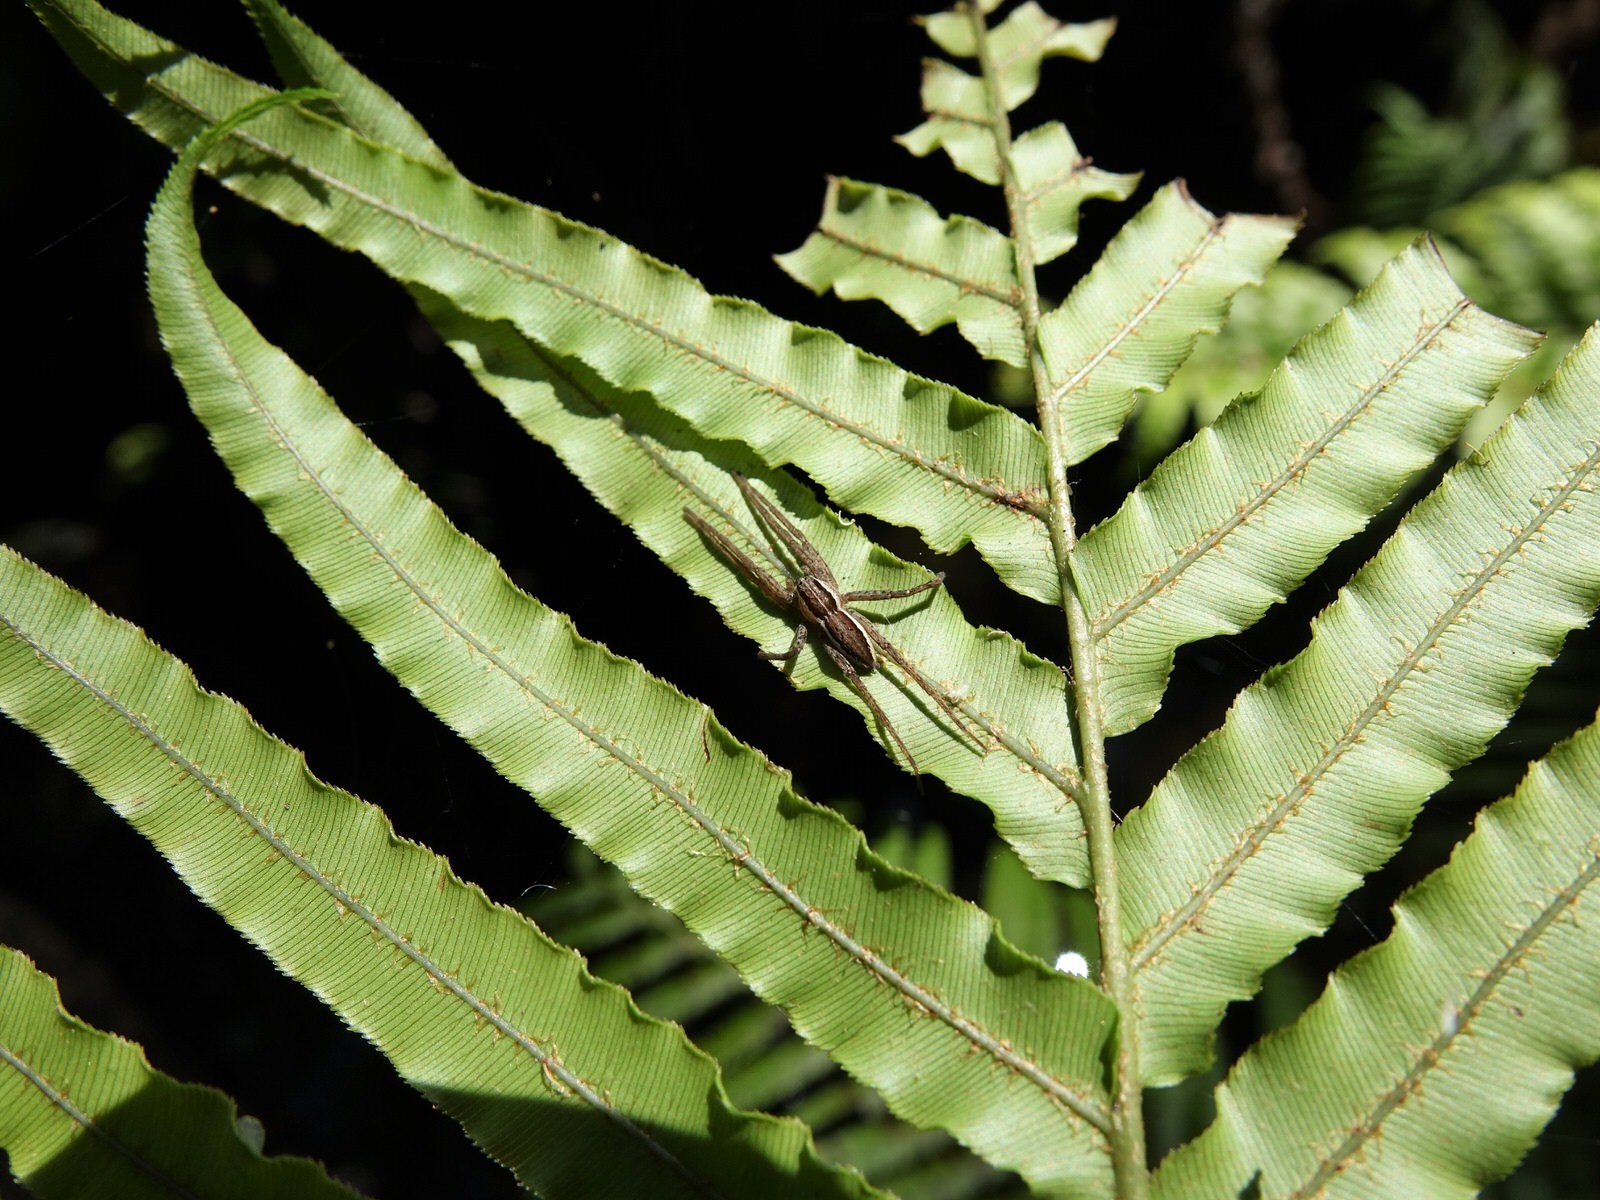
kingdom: Animalia
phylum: Arthropoda
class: Arachnida
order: Araneae
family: Pisauridae
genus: Dolomedes
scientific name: Dolomedes minor
